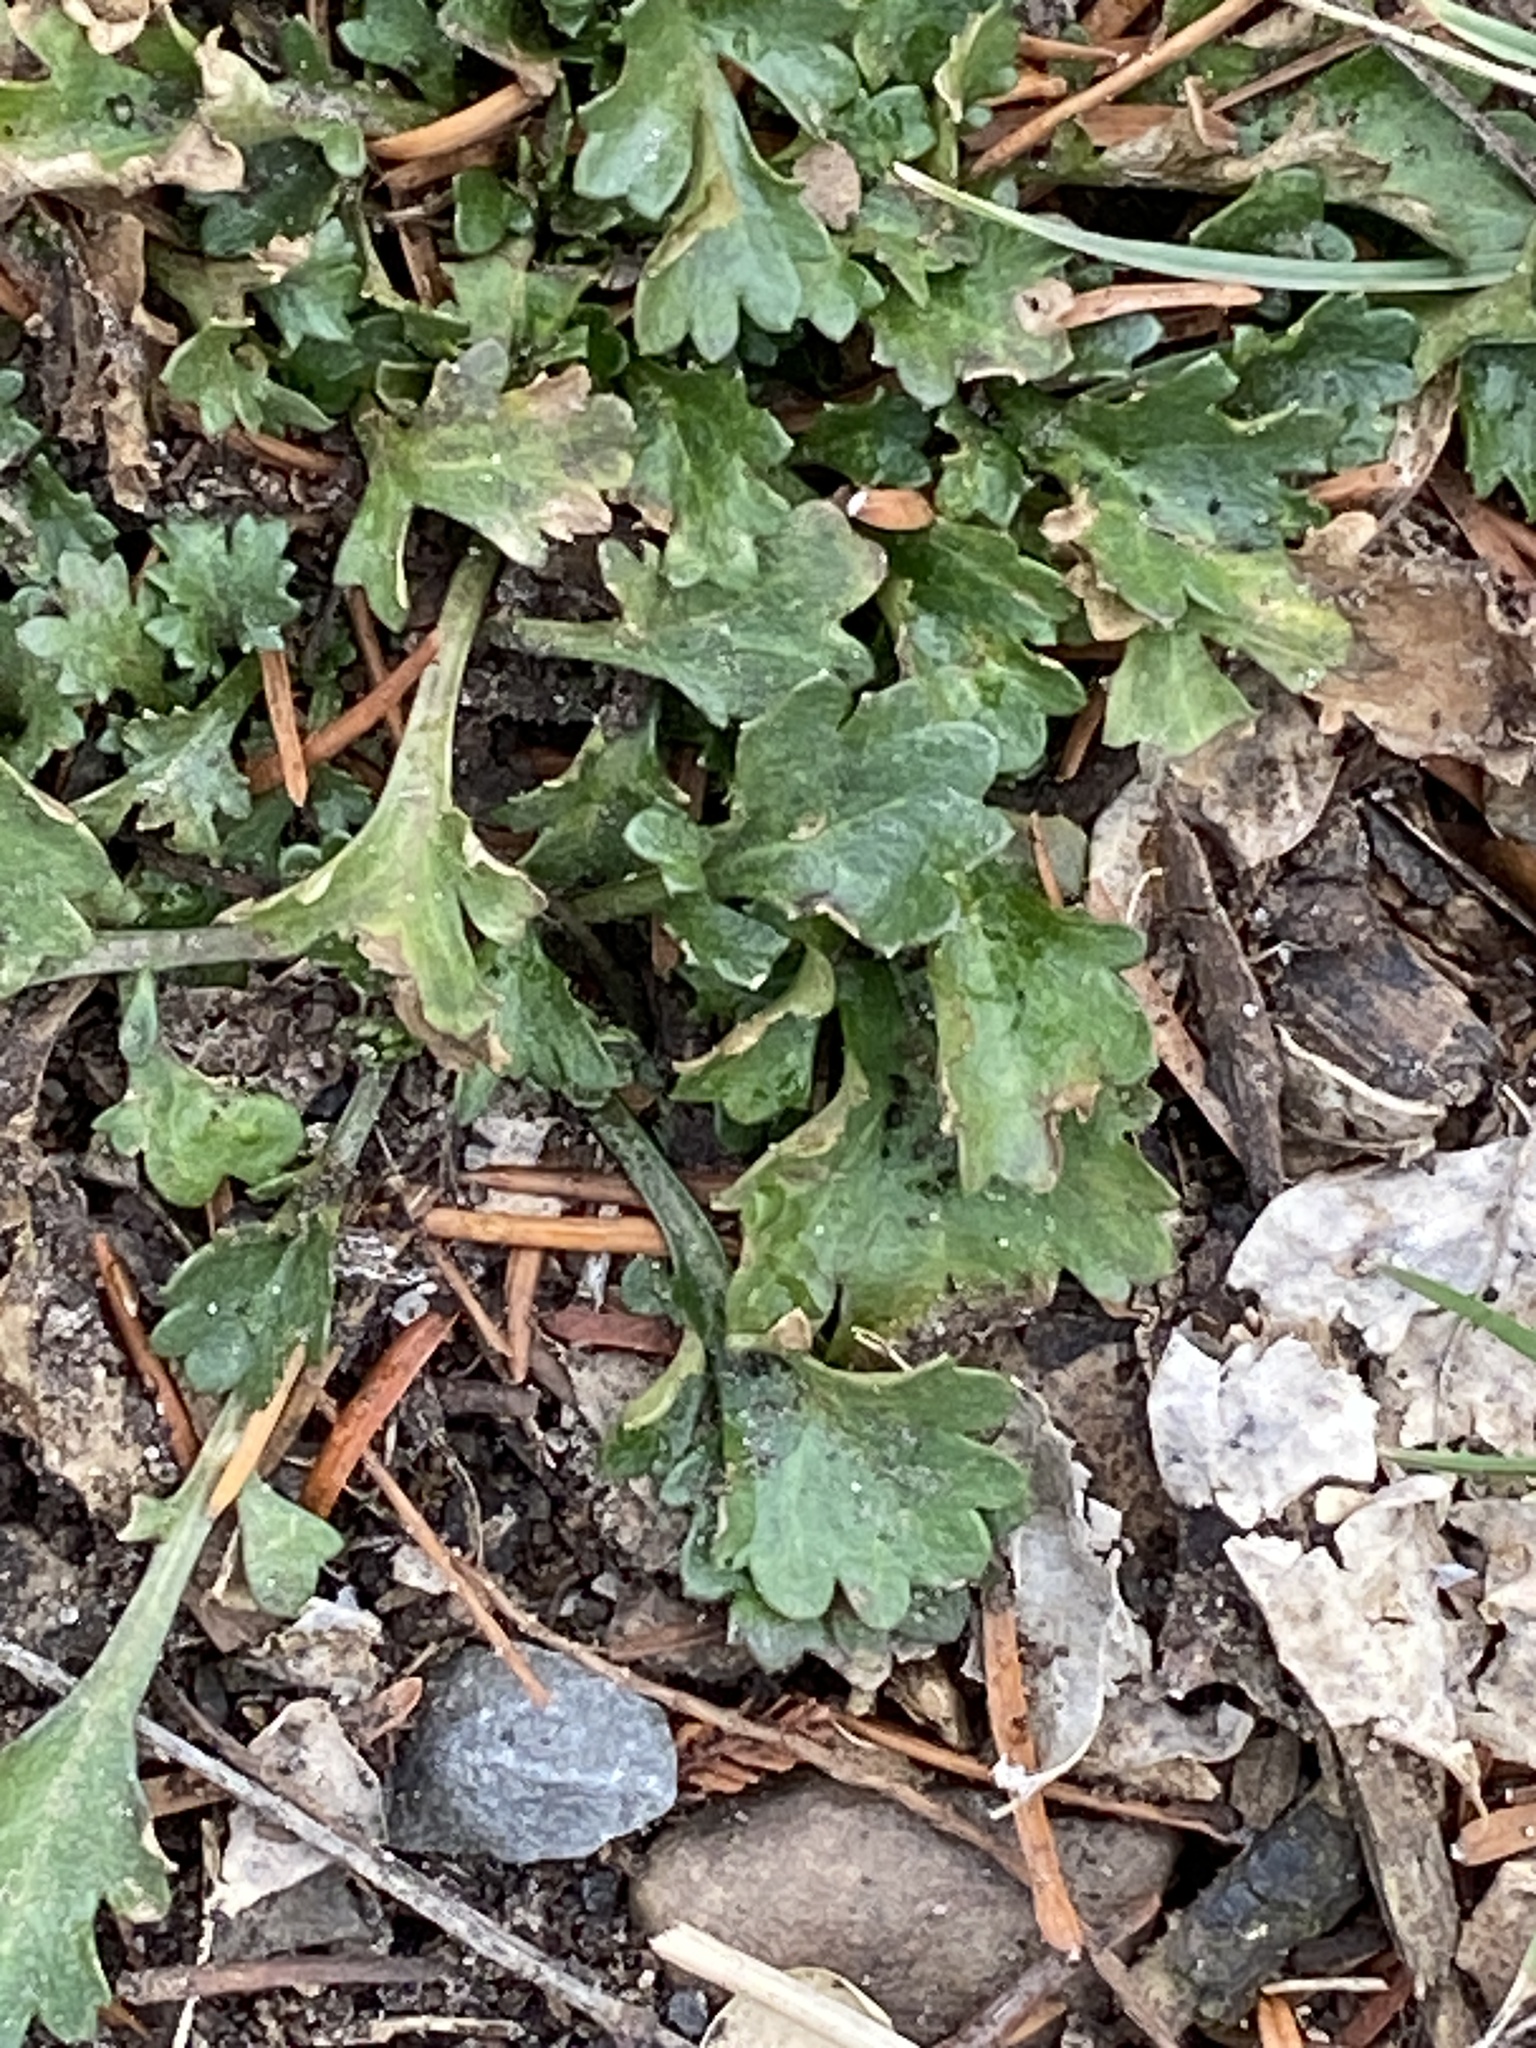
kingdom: Plantae
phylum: Tracheophyta
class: Magnoliopsida
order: Asterales
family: Asteraceae
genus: Leucanthemum
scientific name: Leucanthemum vulgare
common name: Oxeye daisy
